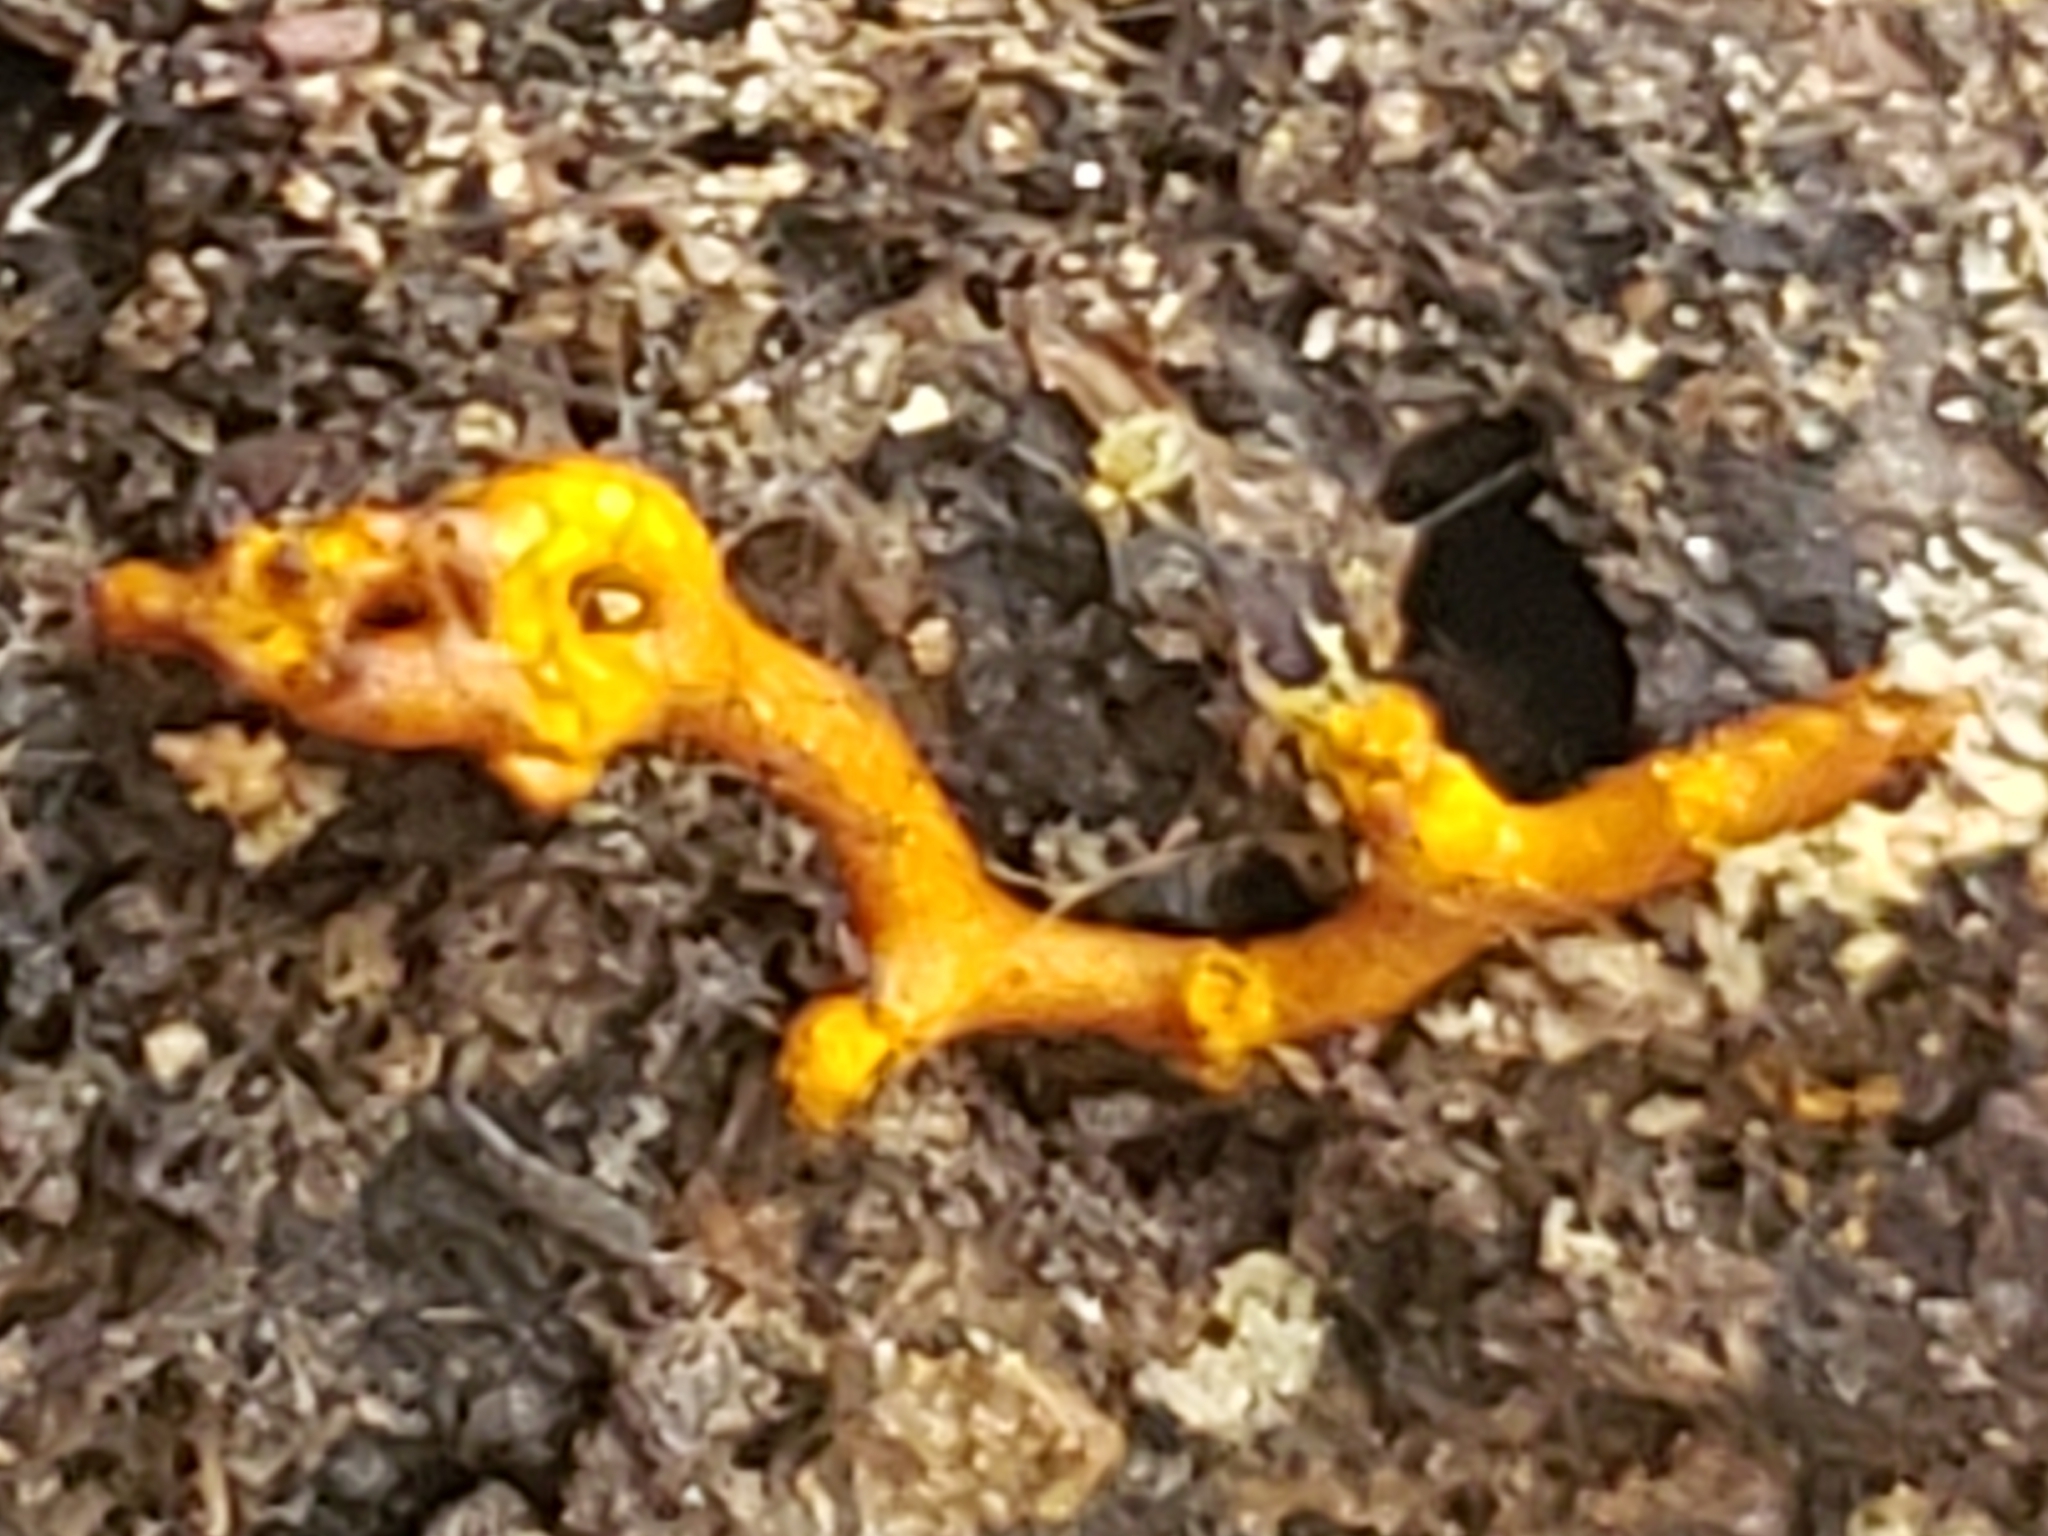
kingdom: Protozoa
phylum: Mycetozoa
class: Myxomycetes
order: Trichiales
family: Arcyriaceae
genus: Hemitrichia
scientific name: Hemitrichia serpula
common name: Pretzel slime mold
